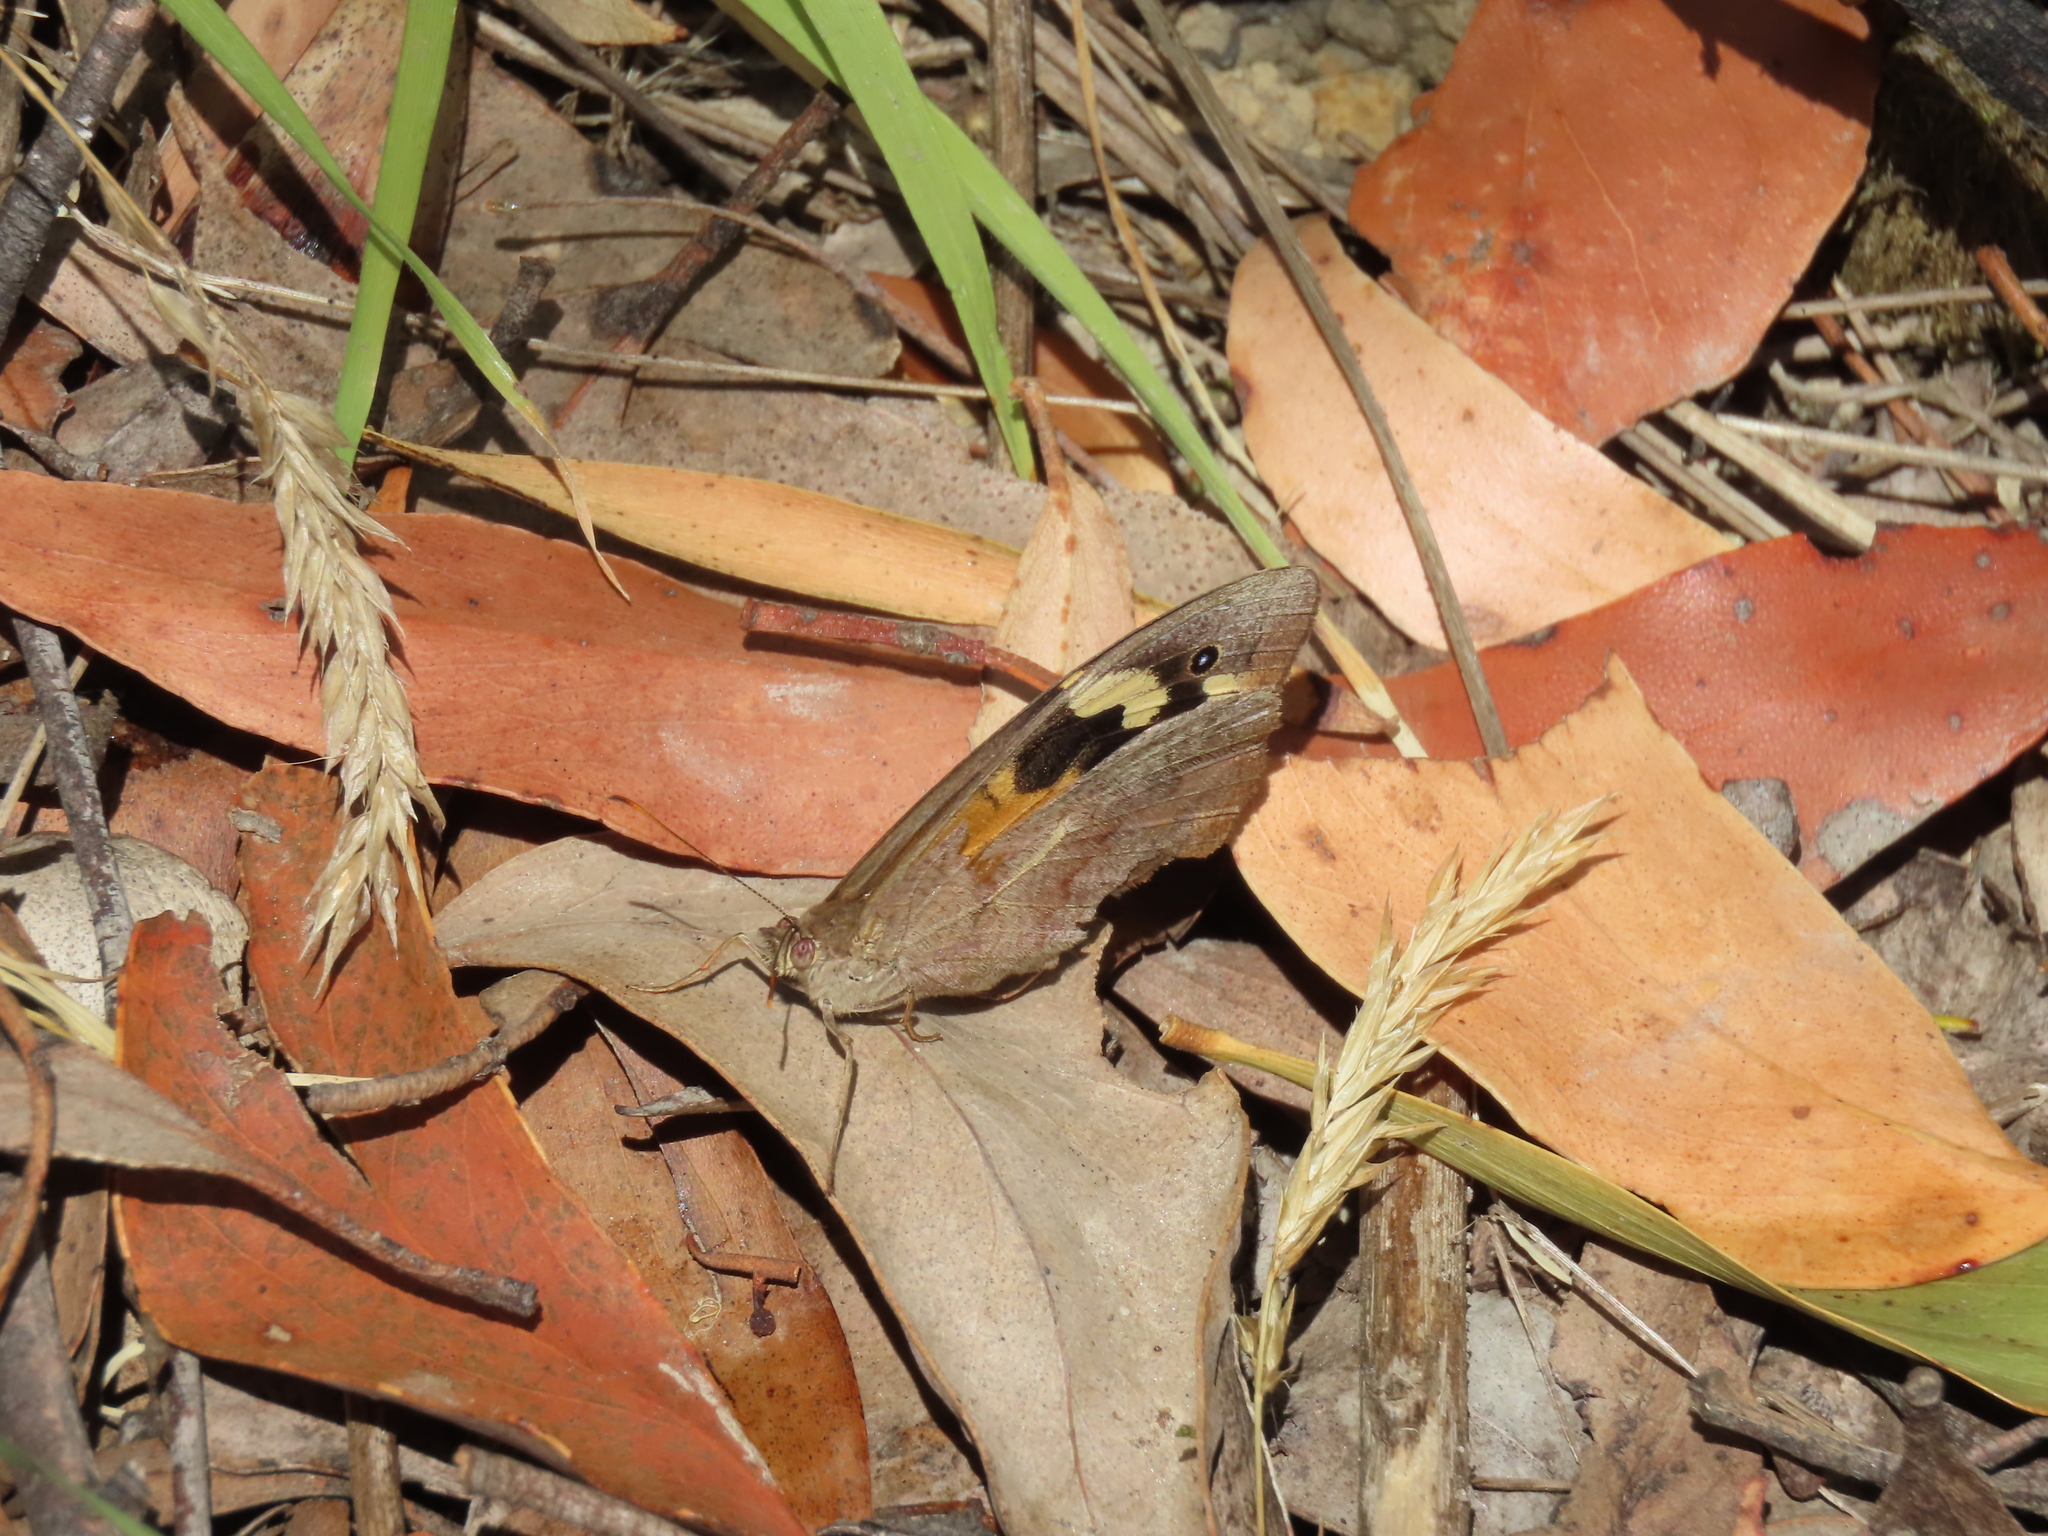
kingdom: Animalia
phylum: Arthropoda
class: Insecta
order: Lepidoptera
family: Nymphalidae
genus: Heteronympha
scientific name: Heteronympha merope
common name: Common brown
